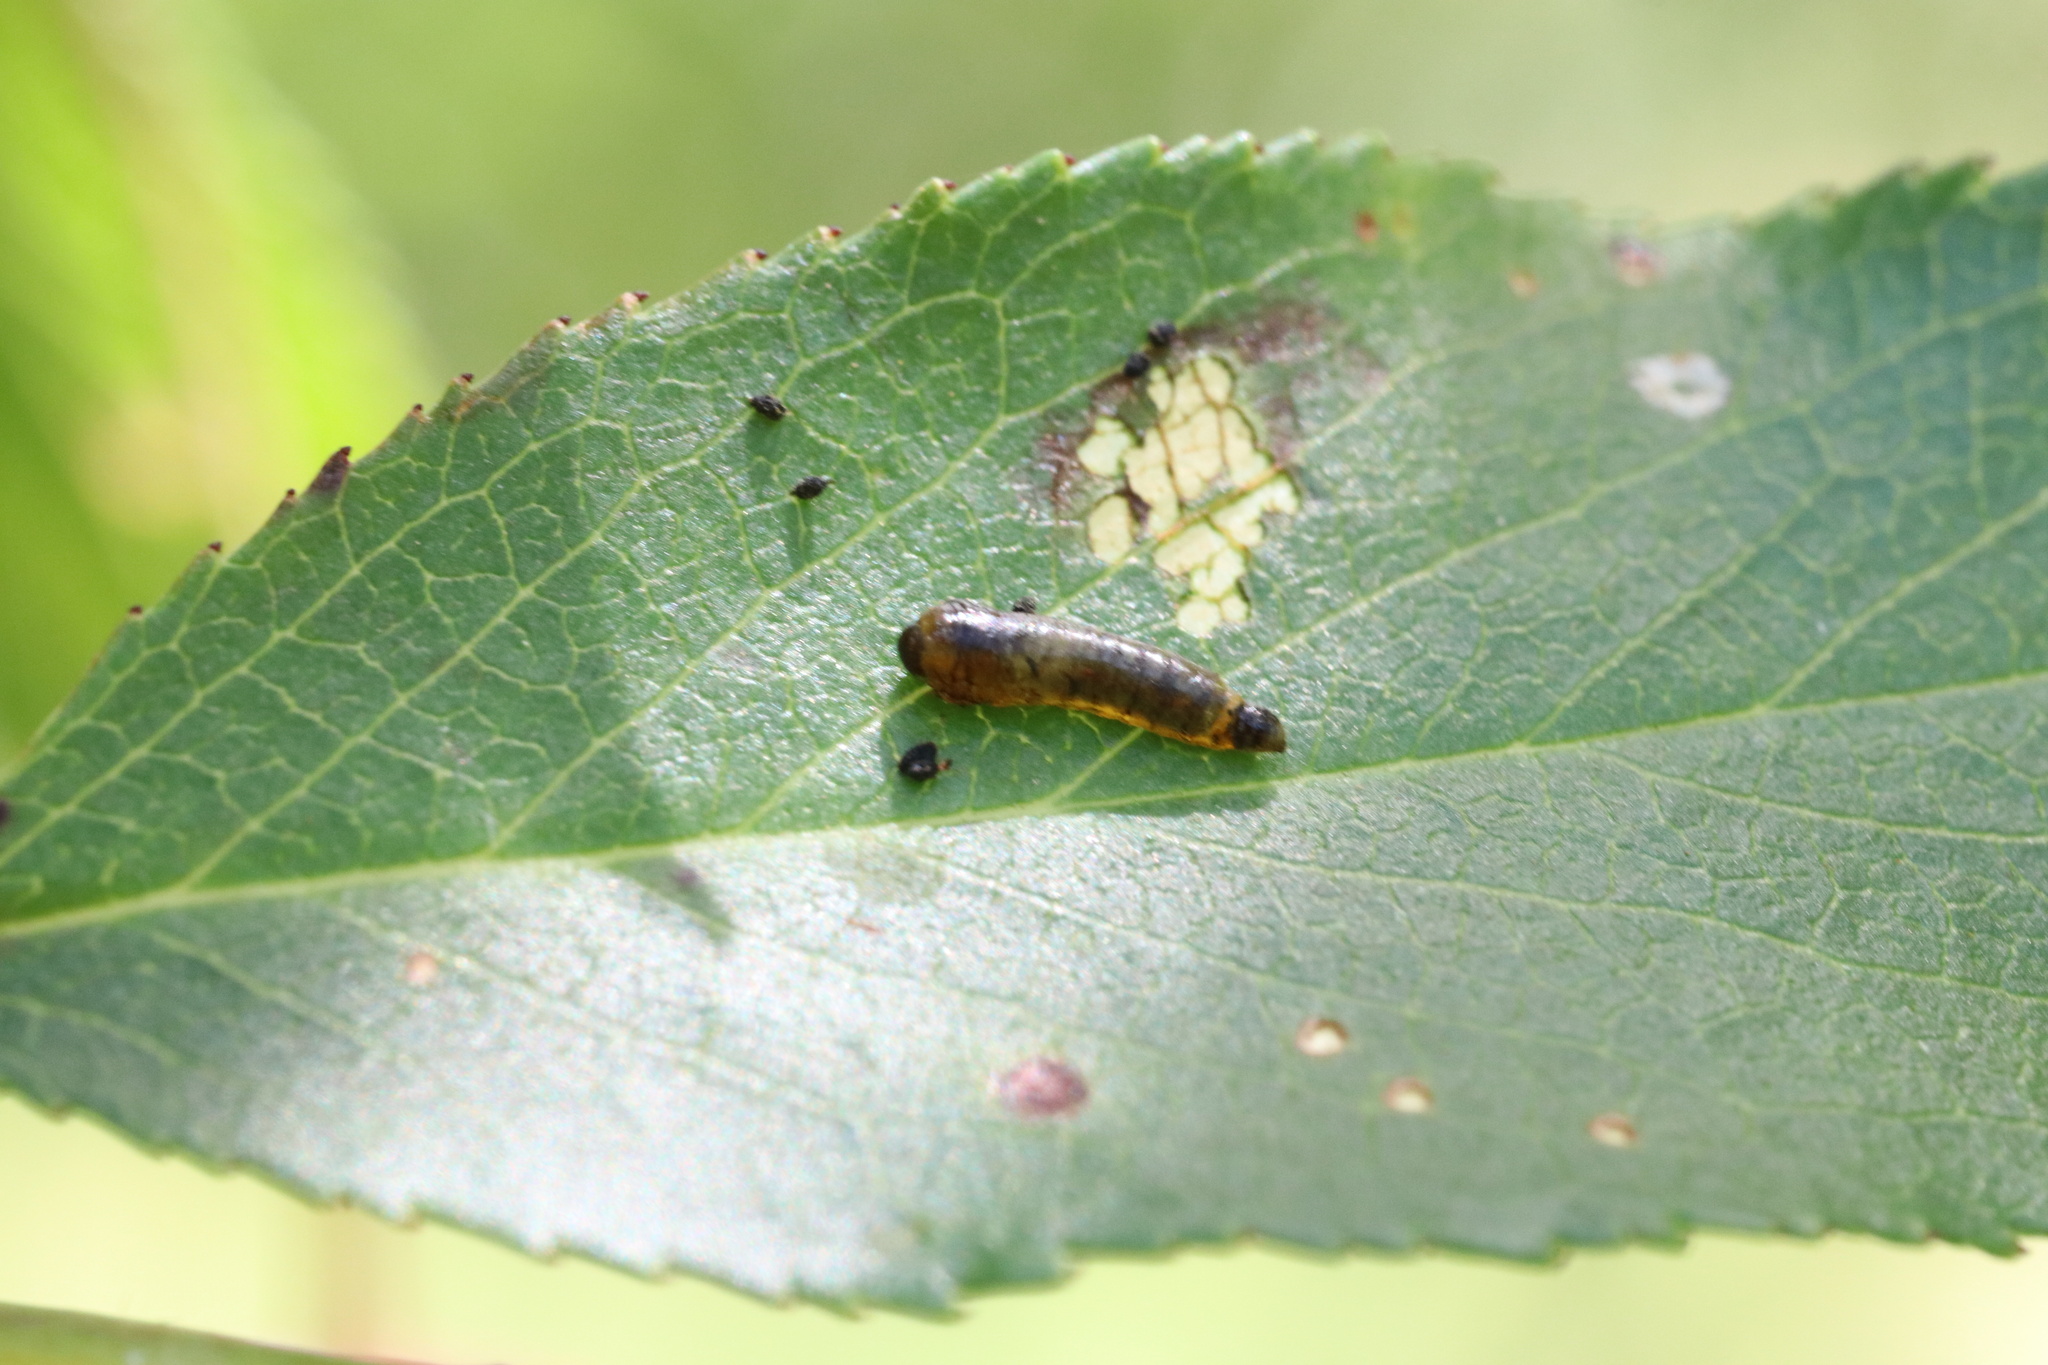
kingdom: Animalia
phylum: Arthropoda
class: Insecta
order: Hymenoptera
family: Tenthredinidae
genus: Caliroa
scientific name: Caliroa cerasi
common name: Pear sawfly
